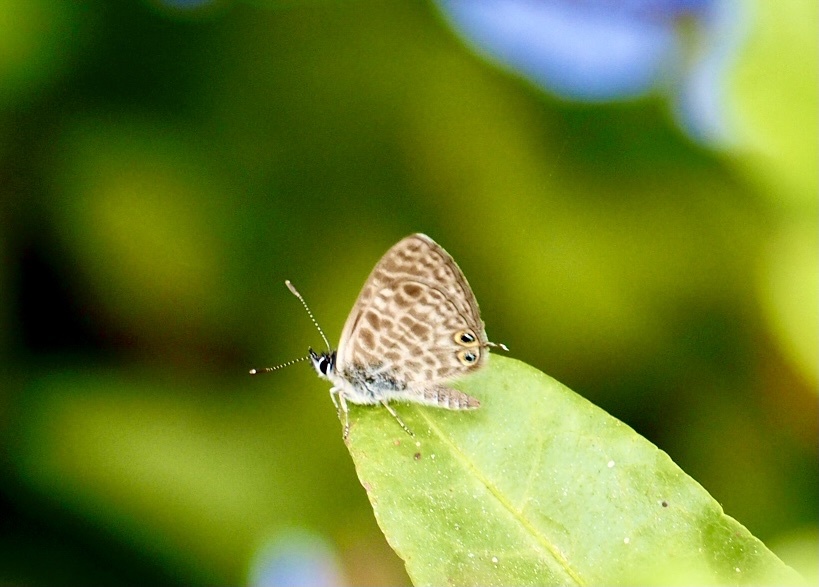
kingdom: Animalia
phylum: Arthropoda
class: Insecta
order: Lepidoptera
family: Lycaenidae
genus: Leptotes
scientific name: Leptotes pirithous
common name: Lang's short-tailed blue
